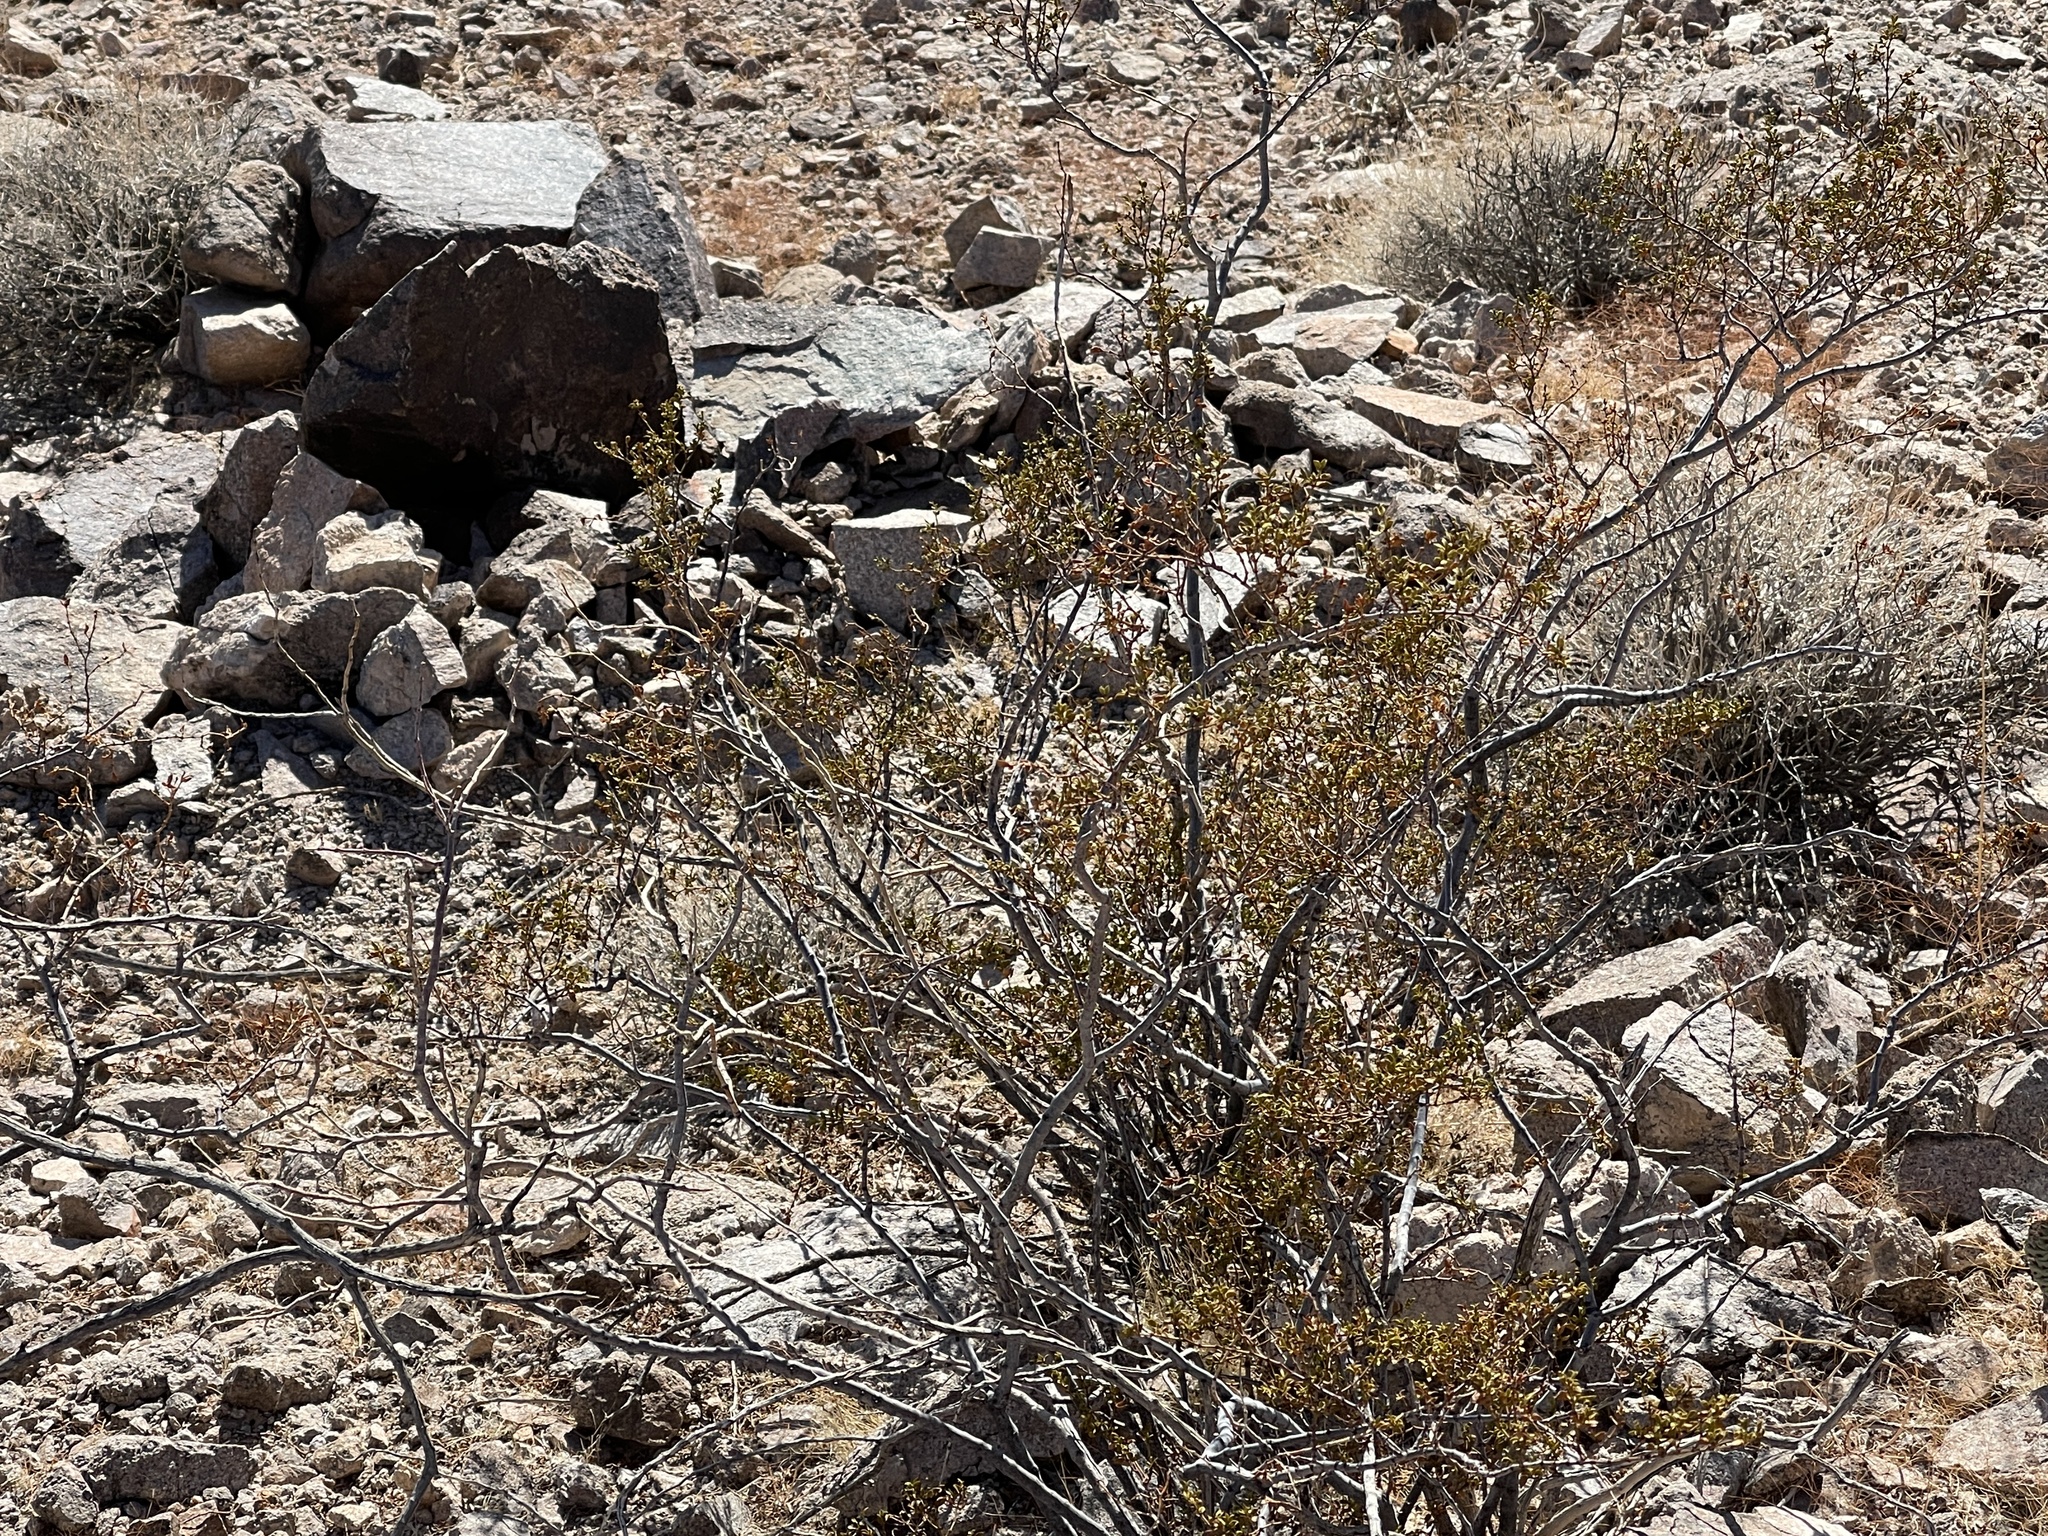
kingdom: Plantae
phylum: Tracheophyta
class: Magnoliopsida
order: Zygophyllales
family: Zygophyllaceae
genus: Larrea
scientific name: Larrea tridentata
